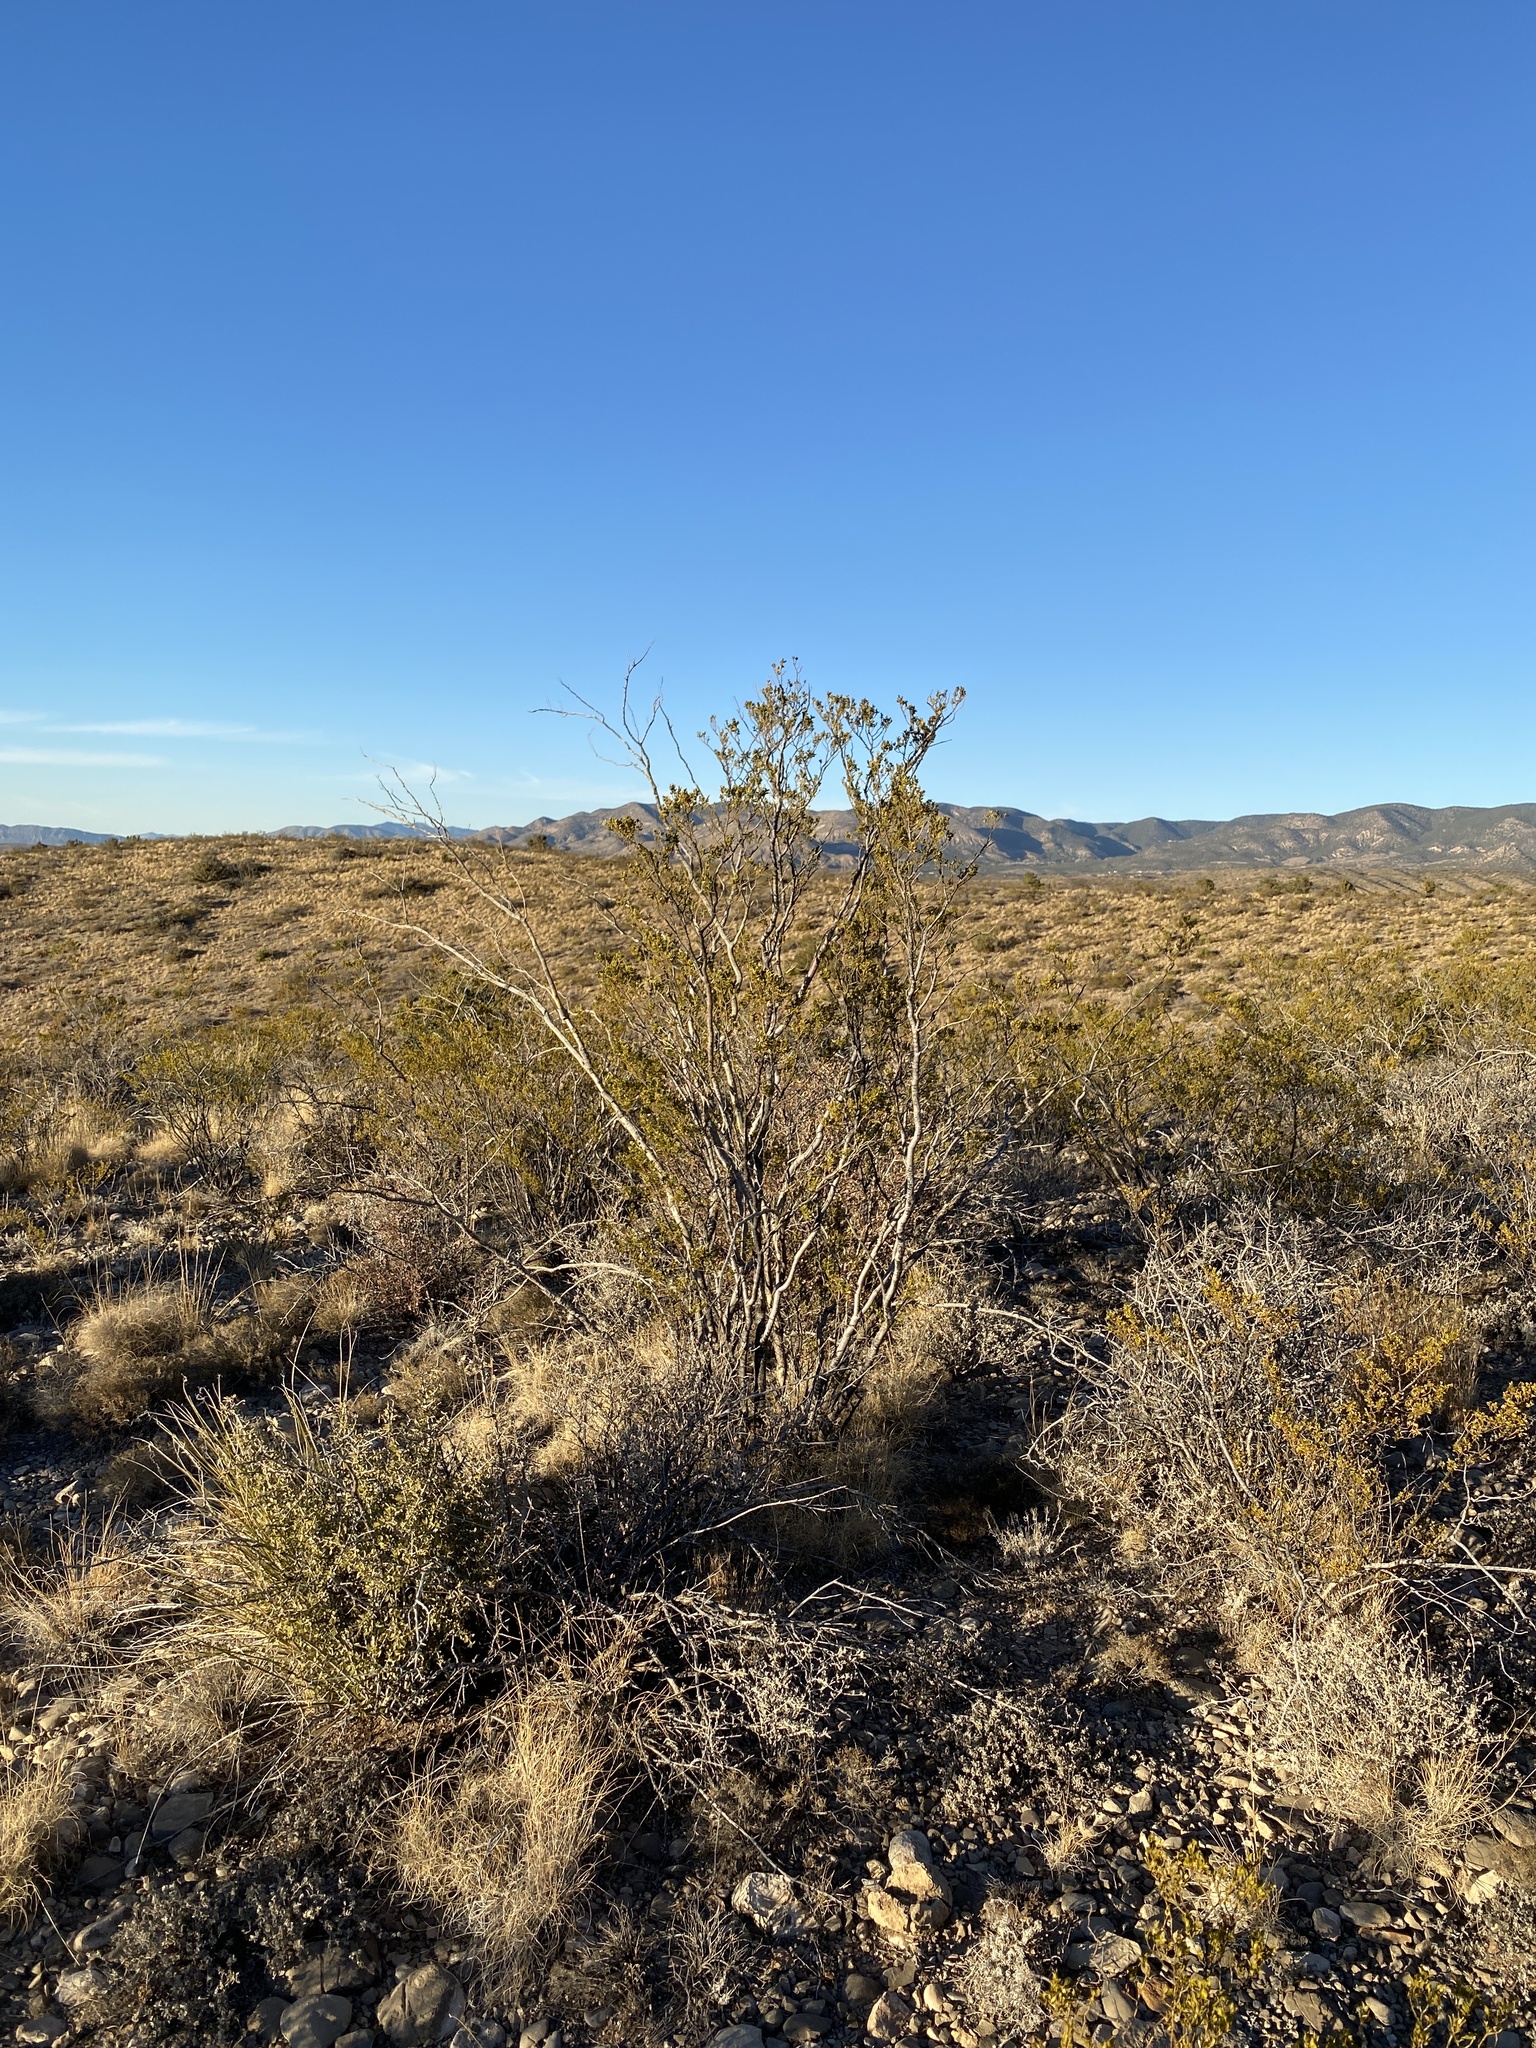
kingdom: Plantae
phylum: Tracheophyta
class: Magnoliopsida
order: Zygophyllales
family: Zygophyllaceae
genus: Larrea
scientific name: Larrea tridentata
